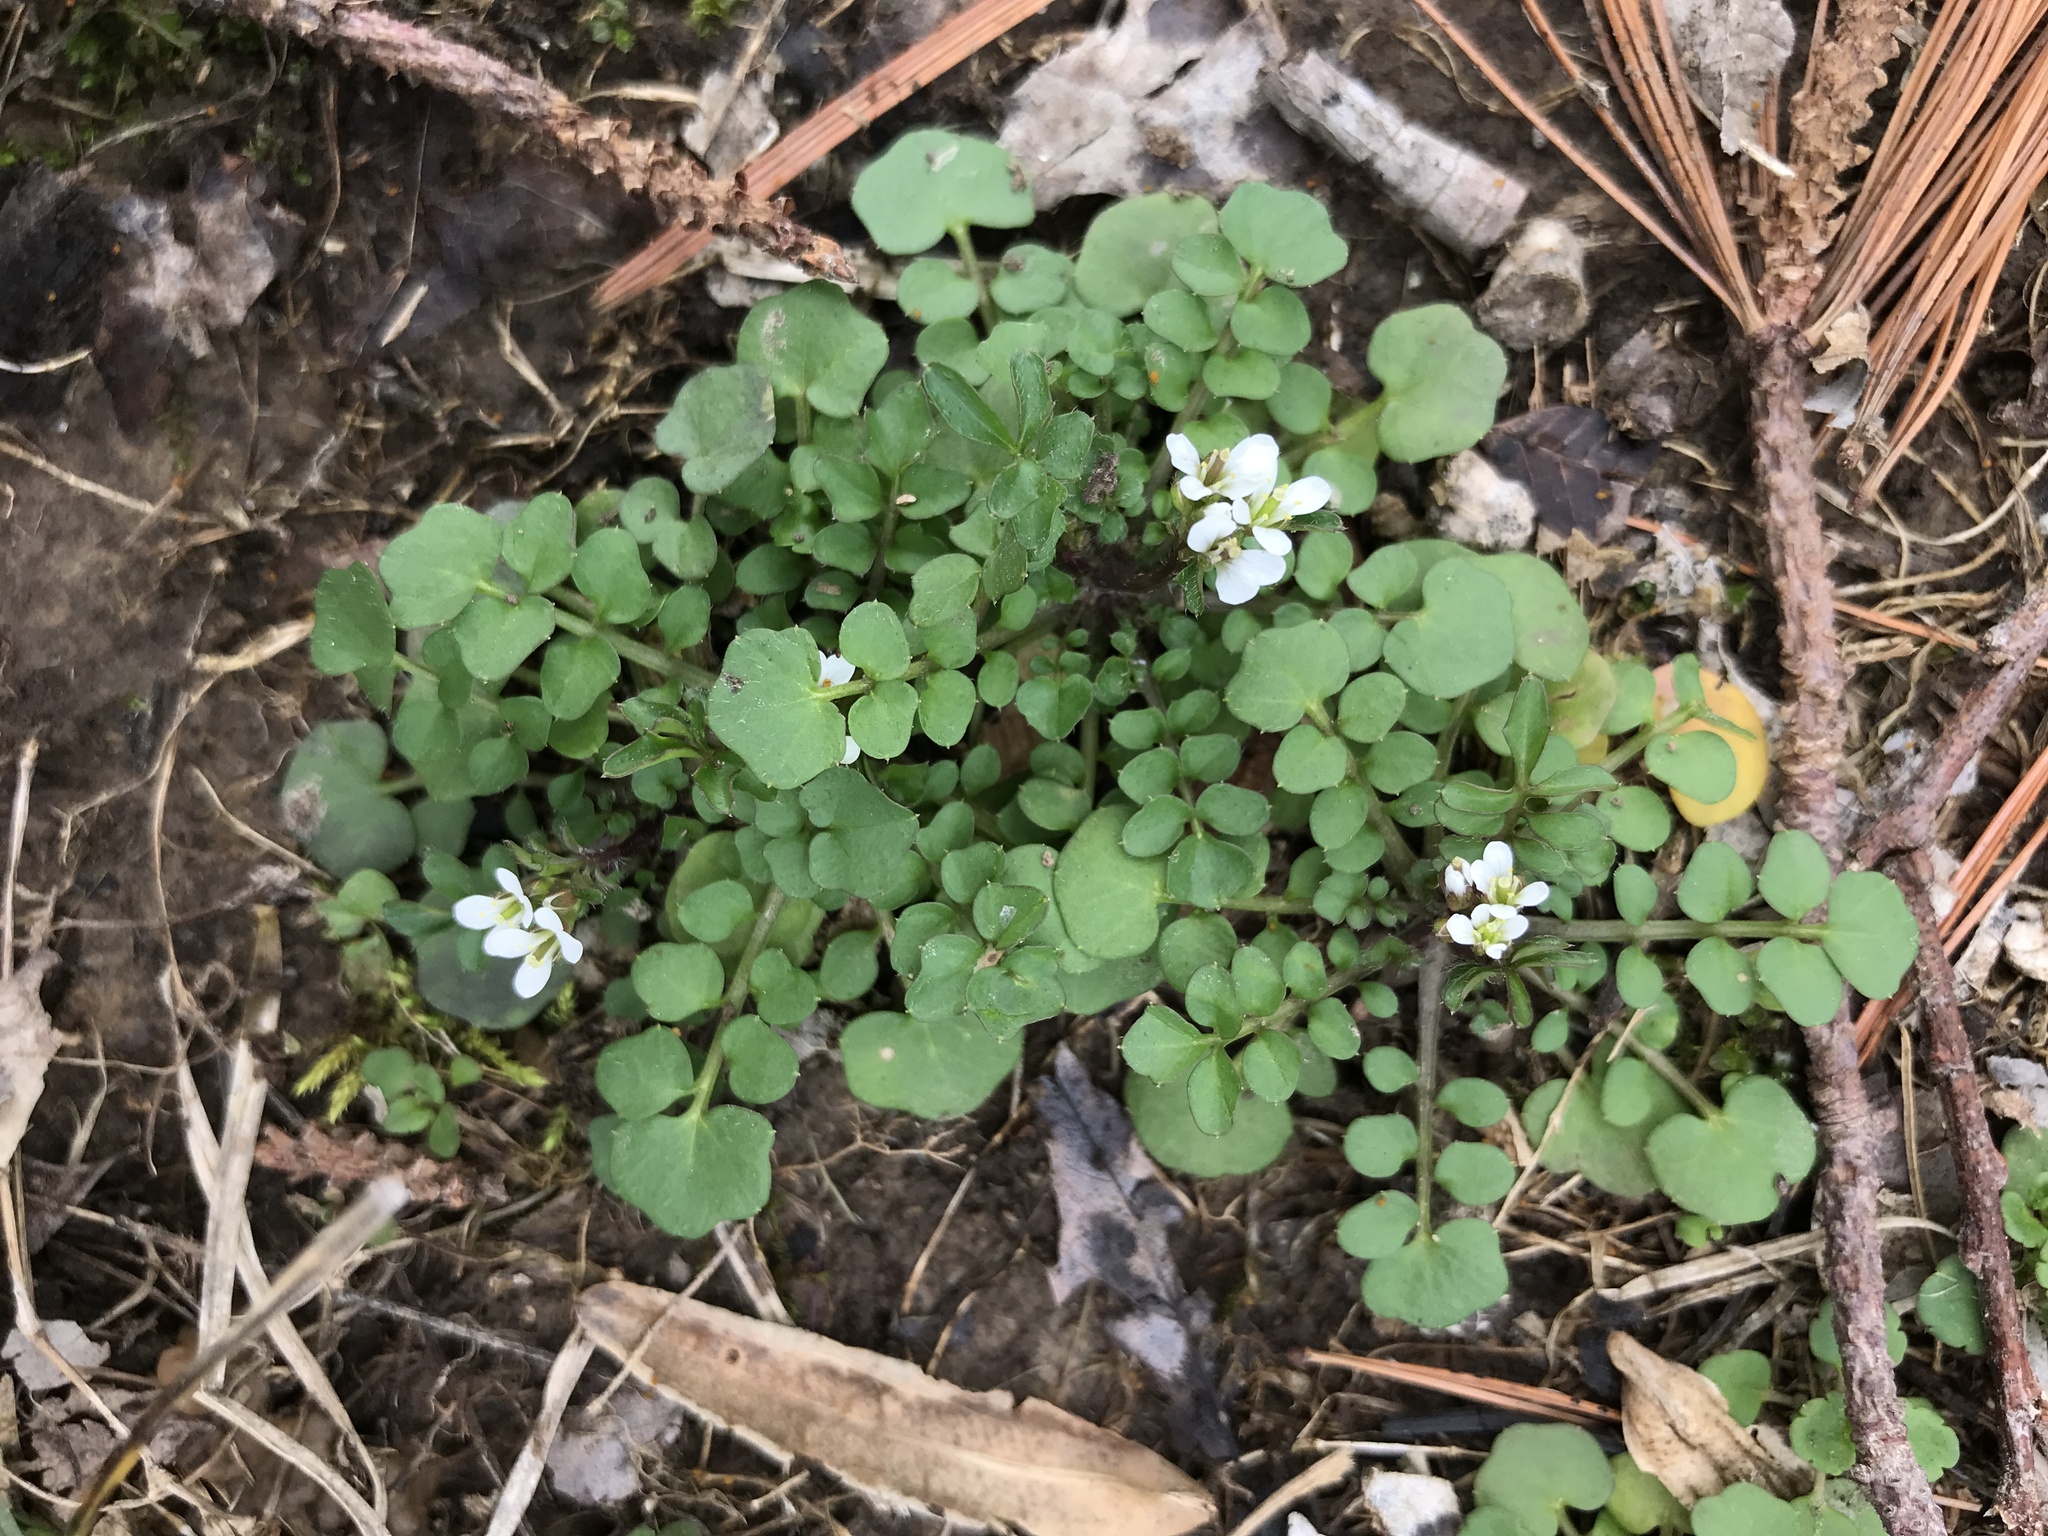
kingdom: Plantae
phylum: Tracheophyta
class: Magnoliopsida
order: Brassicales
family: Brassicaceae
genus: Cardamine
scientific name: Cardamine hirsuta
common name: Hairy bittercress
